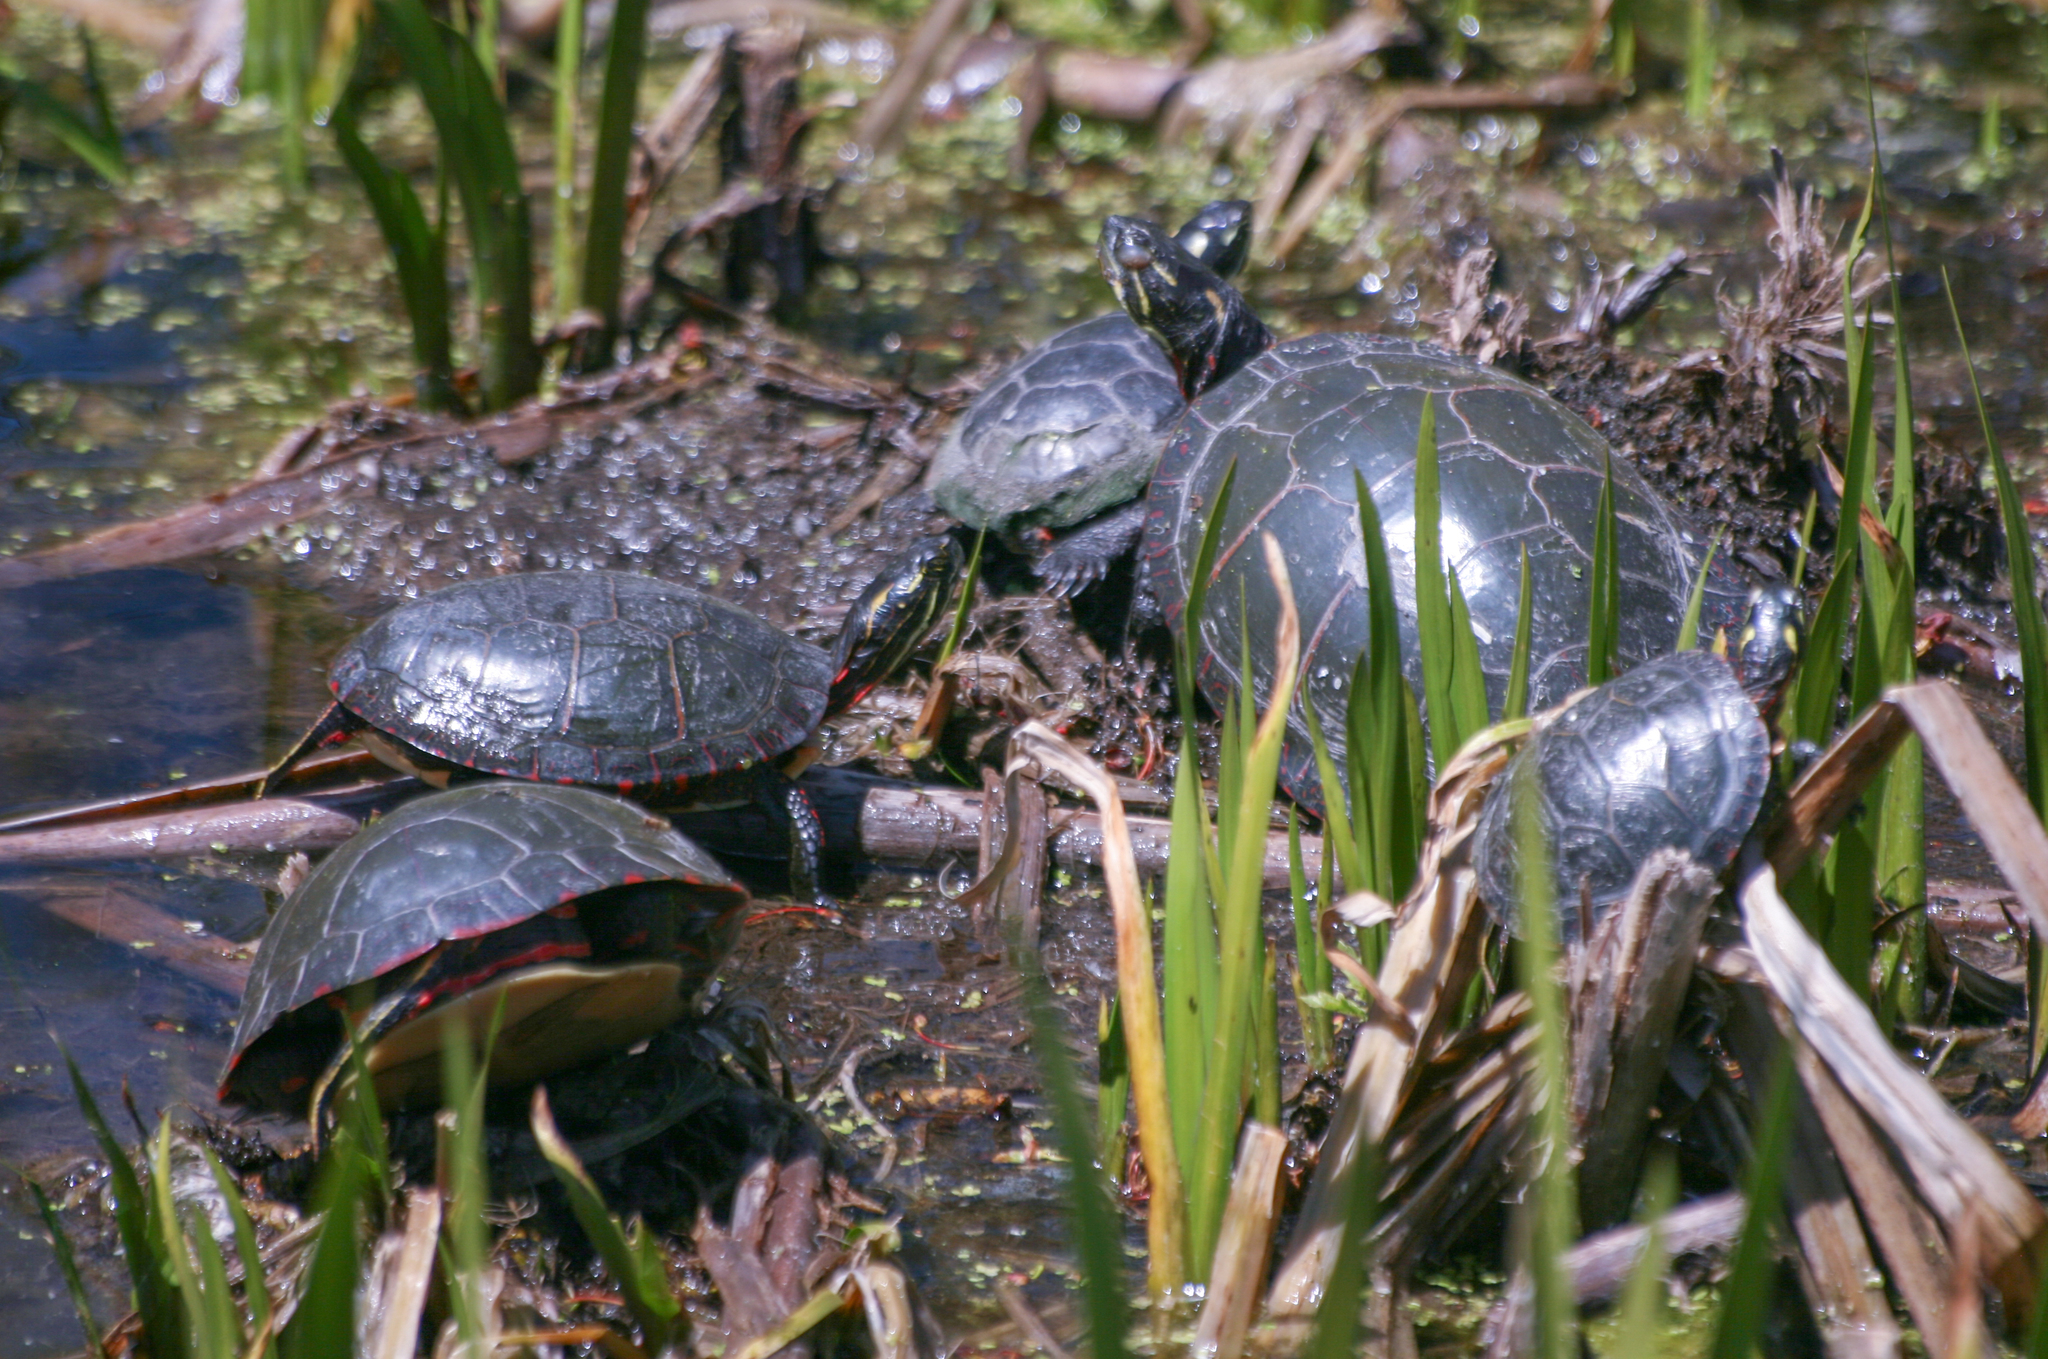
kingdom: Animalia
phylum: Chordata
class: Testudines
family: Emydidae
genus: Chrysemys
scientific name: Chrysemys picta
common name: Painted turtle
